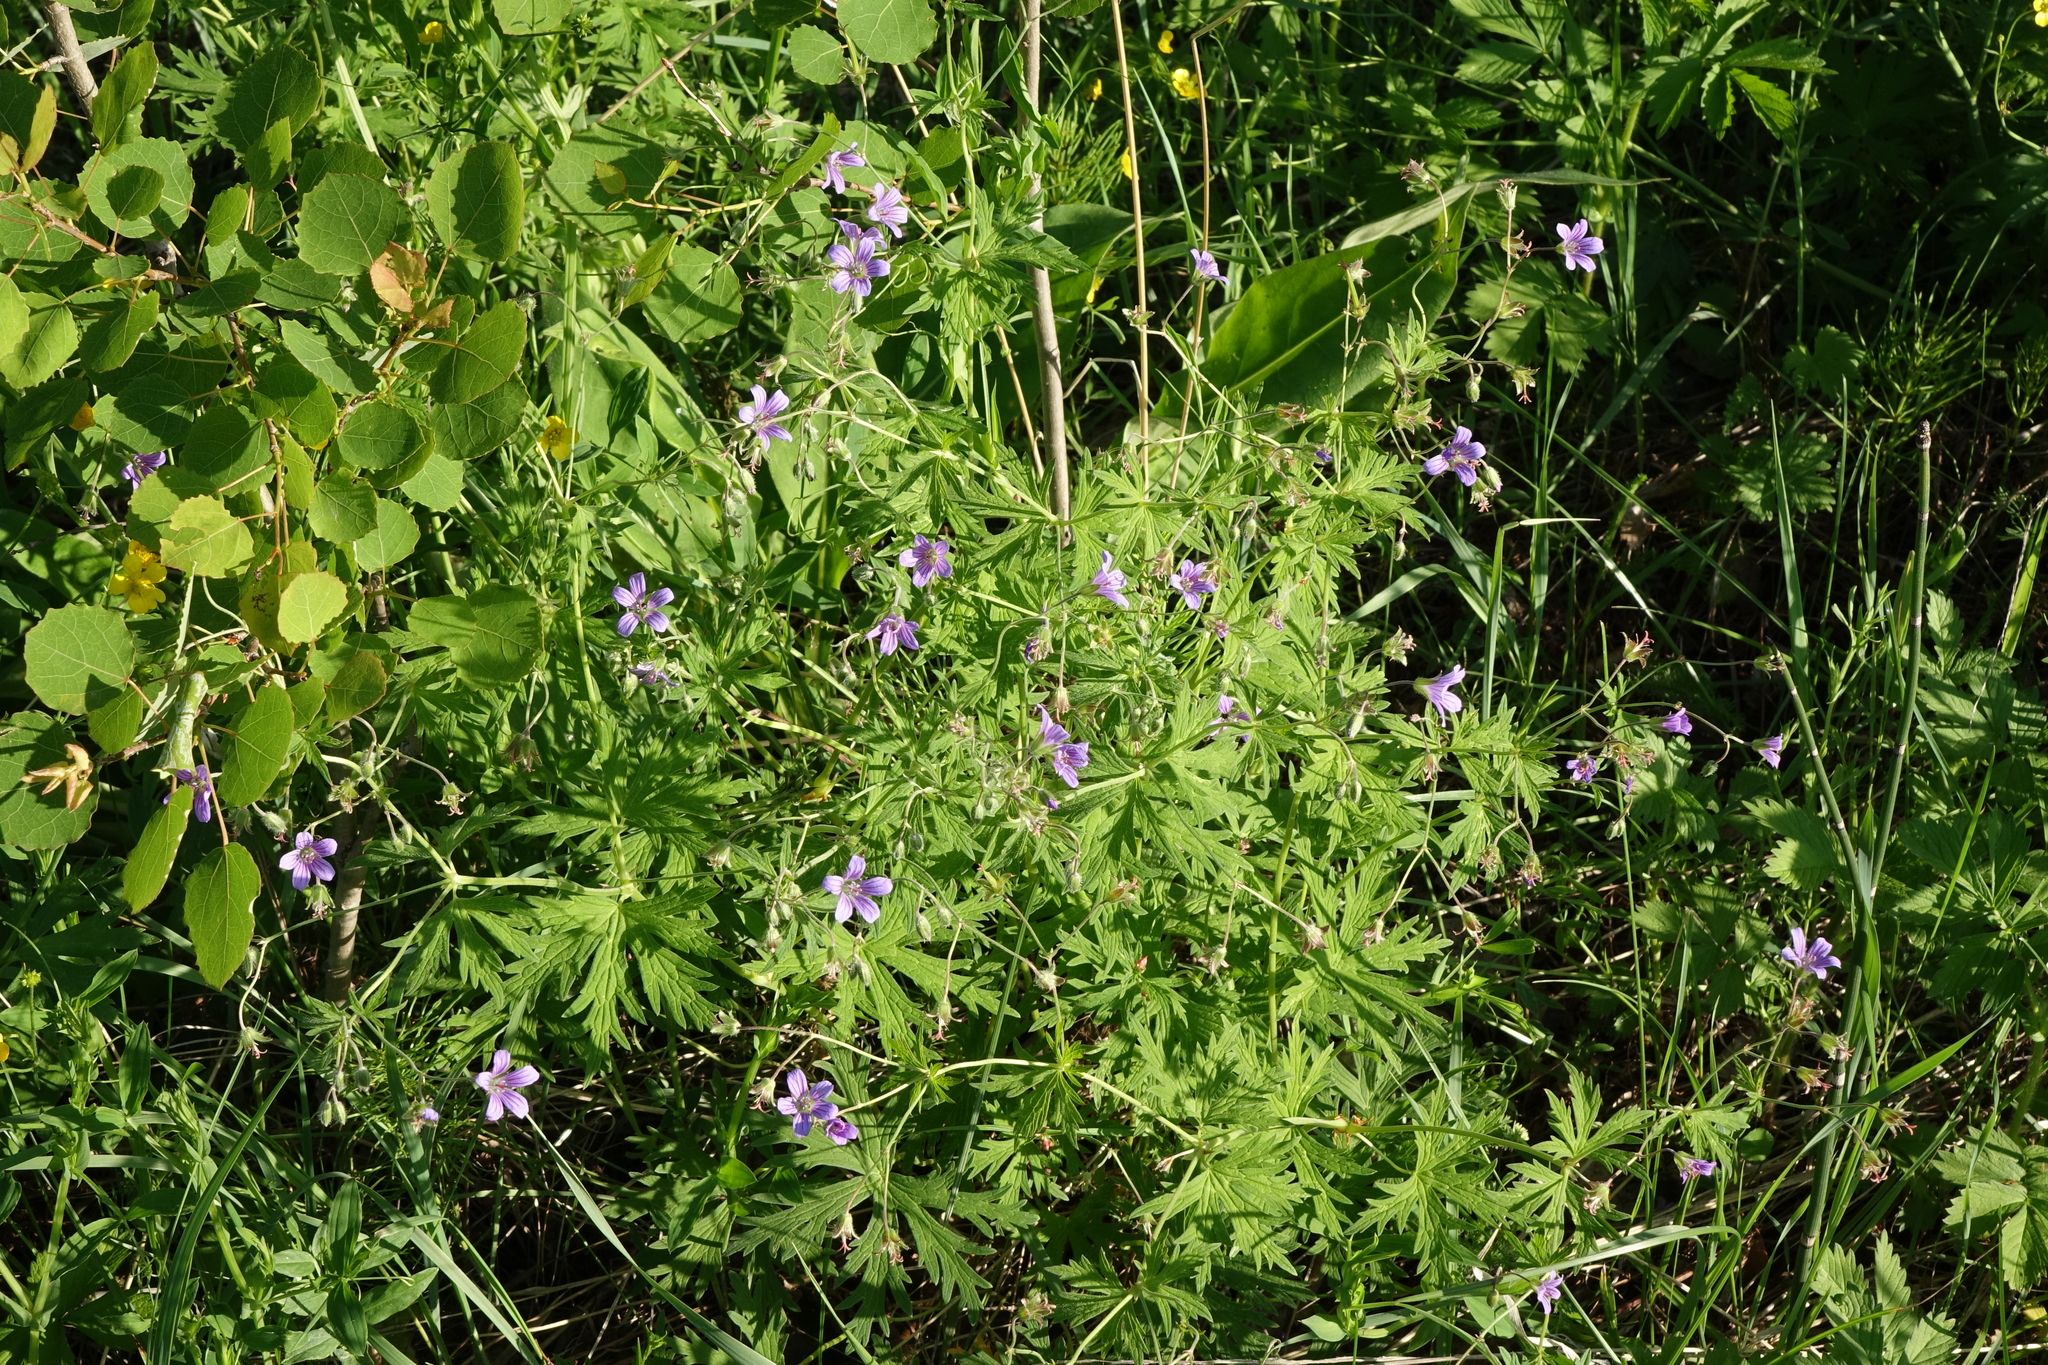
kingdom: Plantae
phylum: Tracheophyta
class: Magnoliopsida
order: Geraniales
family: Geraniaceae
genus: Geranium
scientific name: Geranium pseudosibiricum
